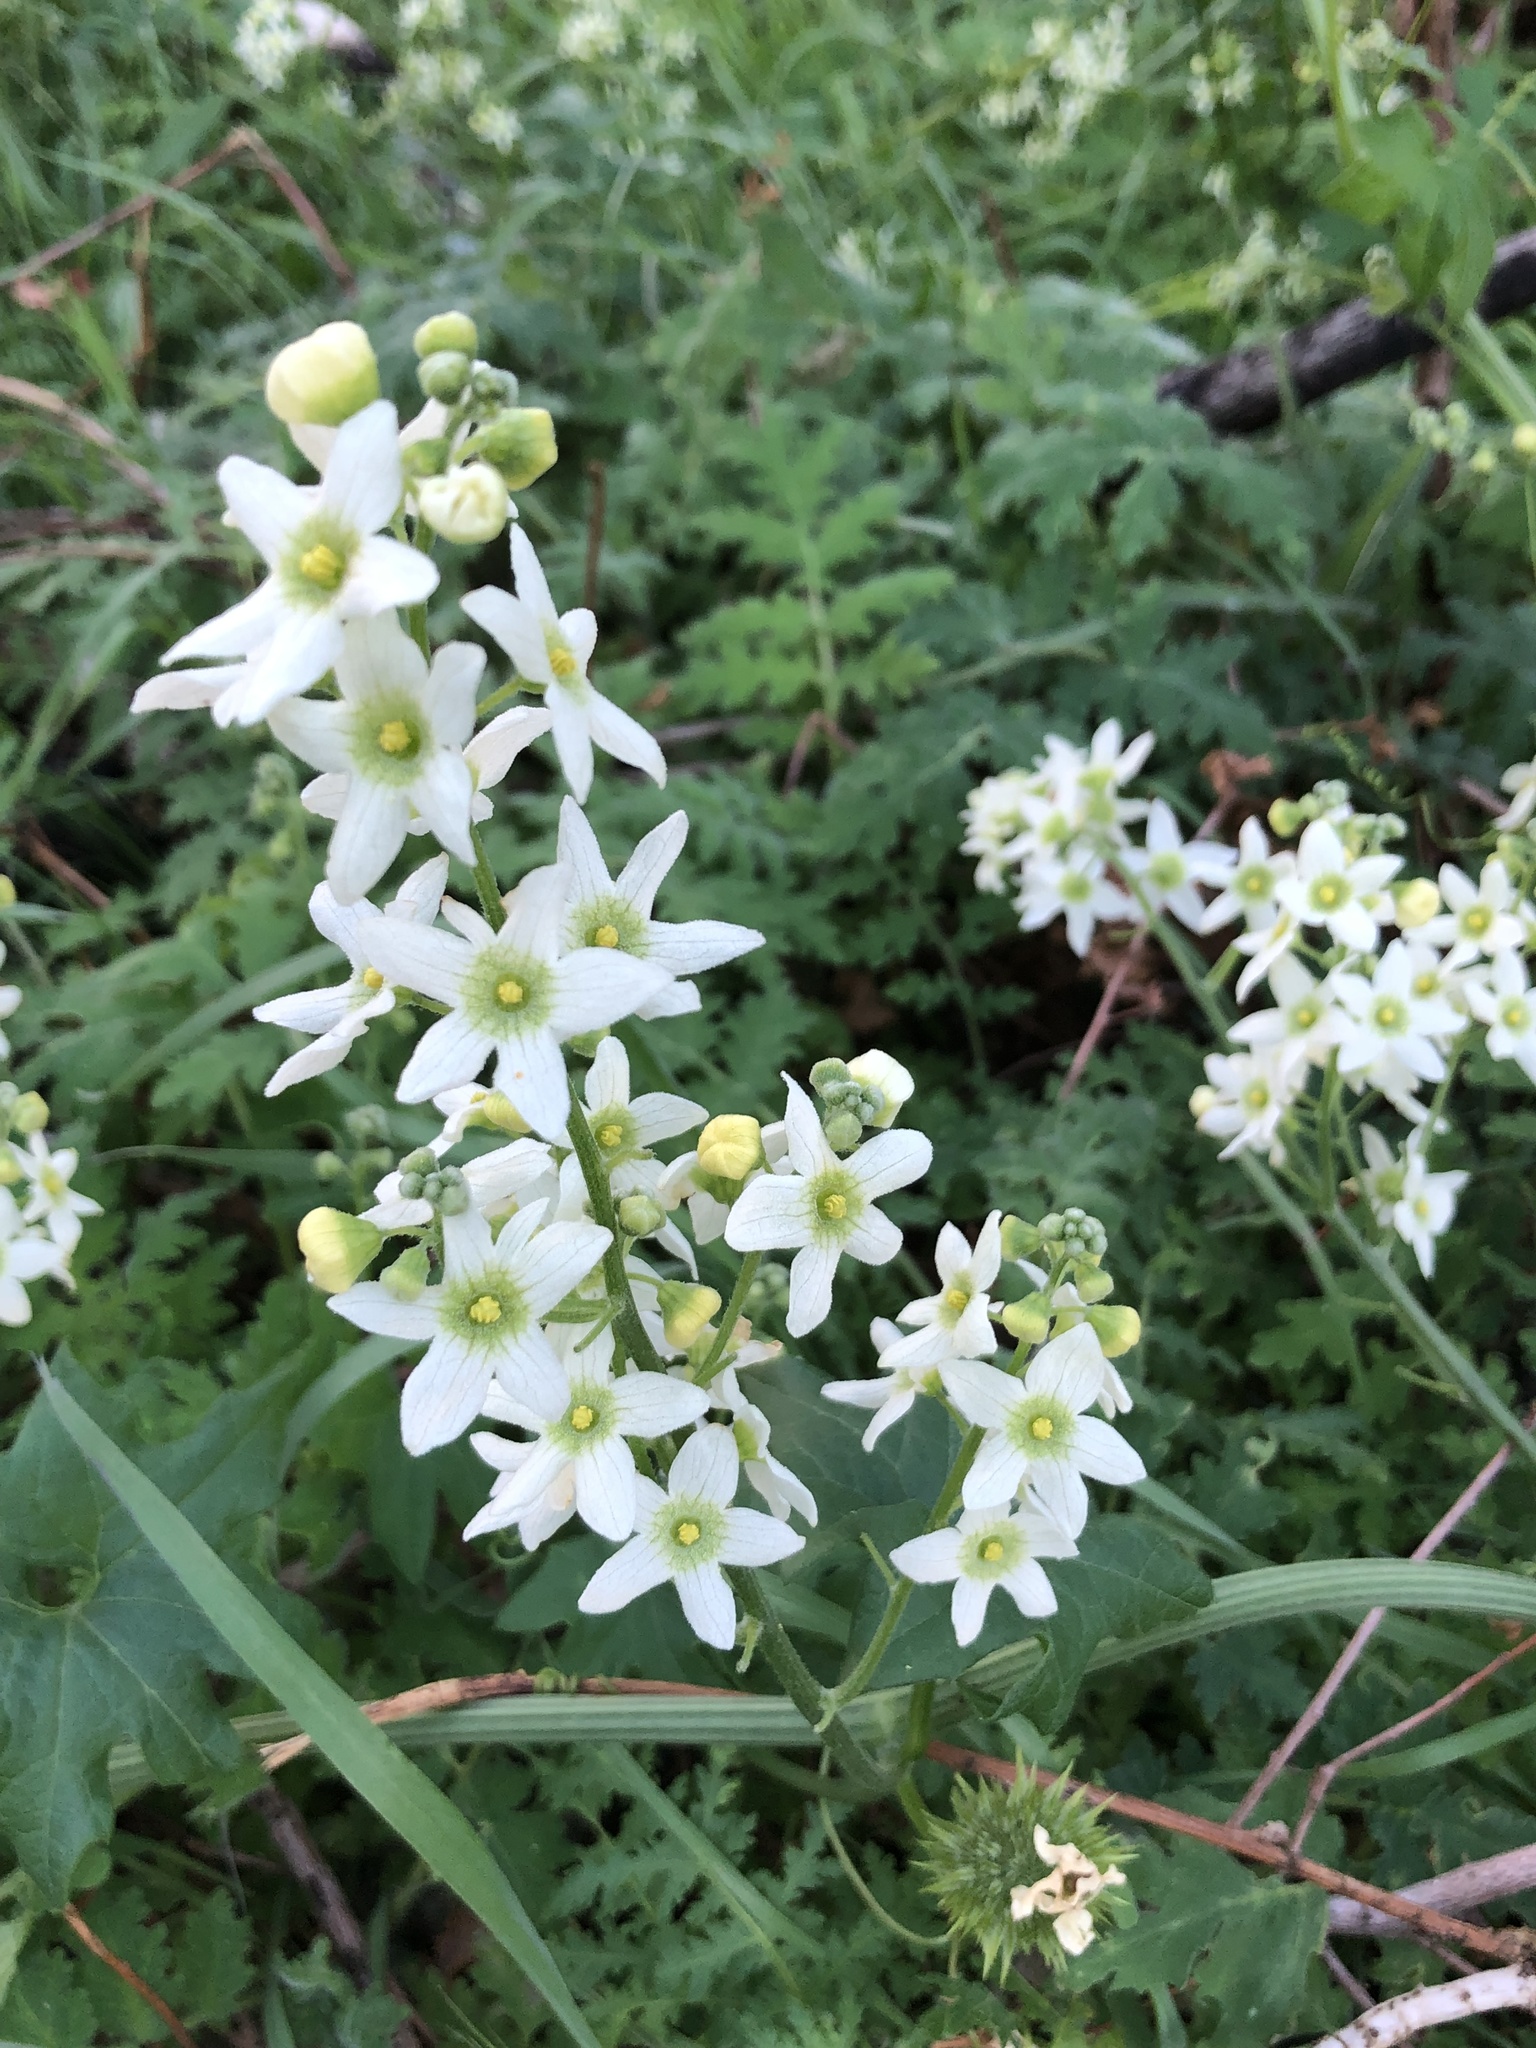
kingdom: Plantae
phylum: Tracheophyta
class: Magnoliopsida
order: Cucurbitales
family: Cucurbitaceae
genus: Marah
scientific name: Marah macrocarpa
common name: Cucamonga manroot
